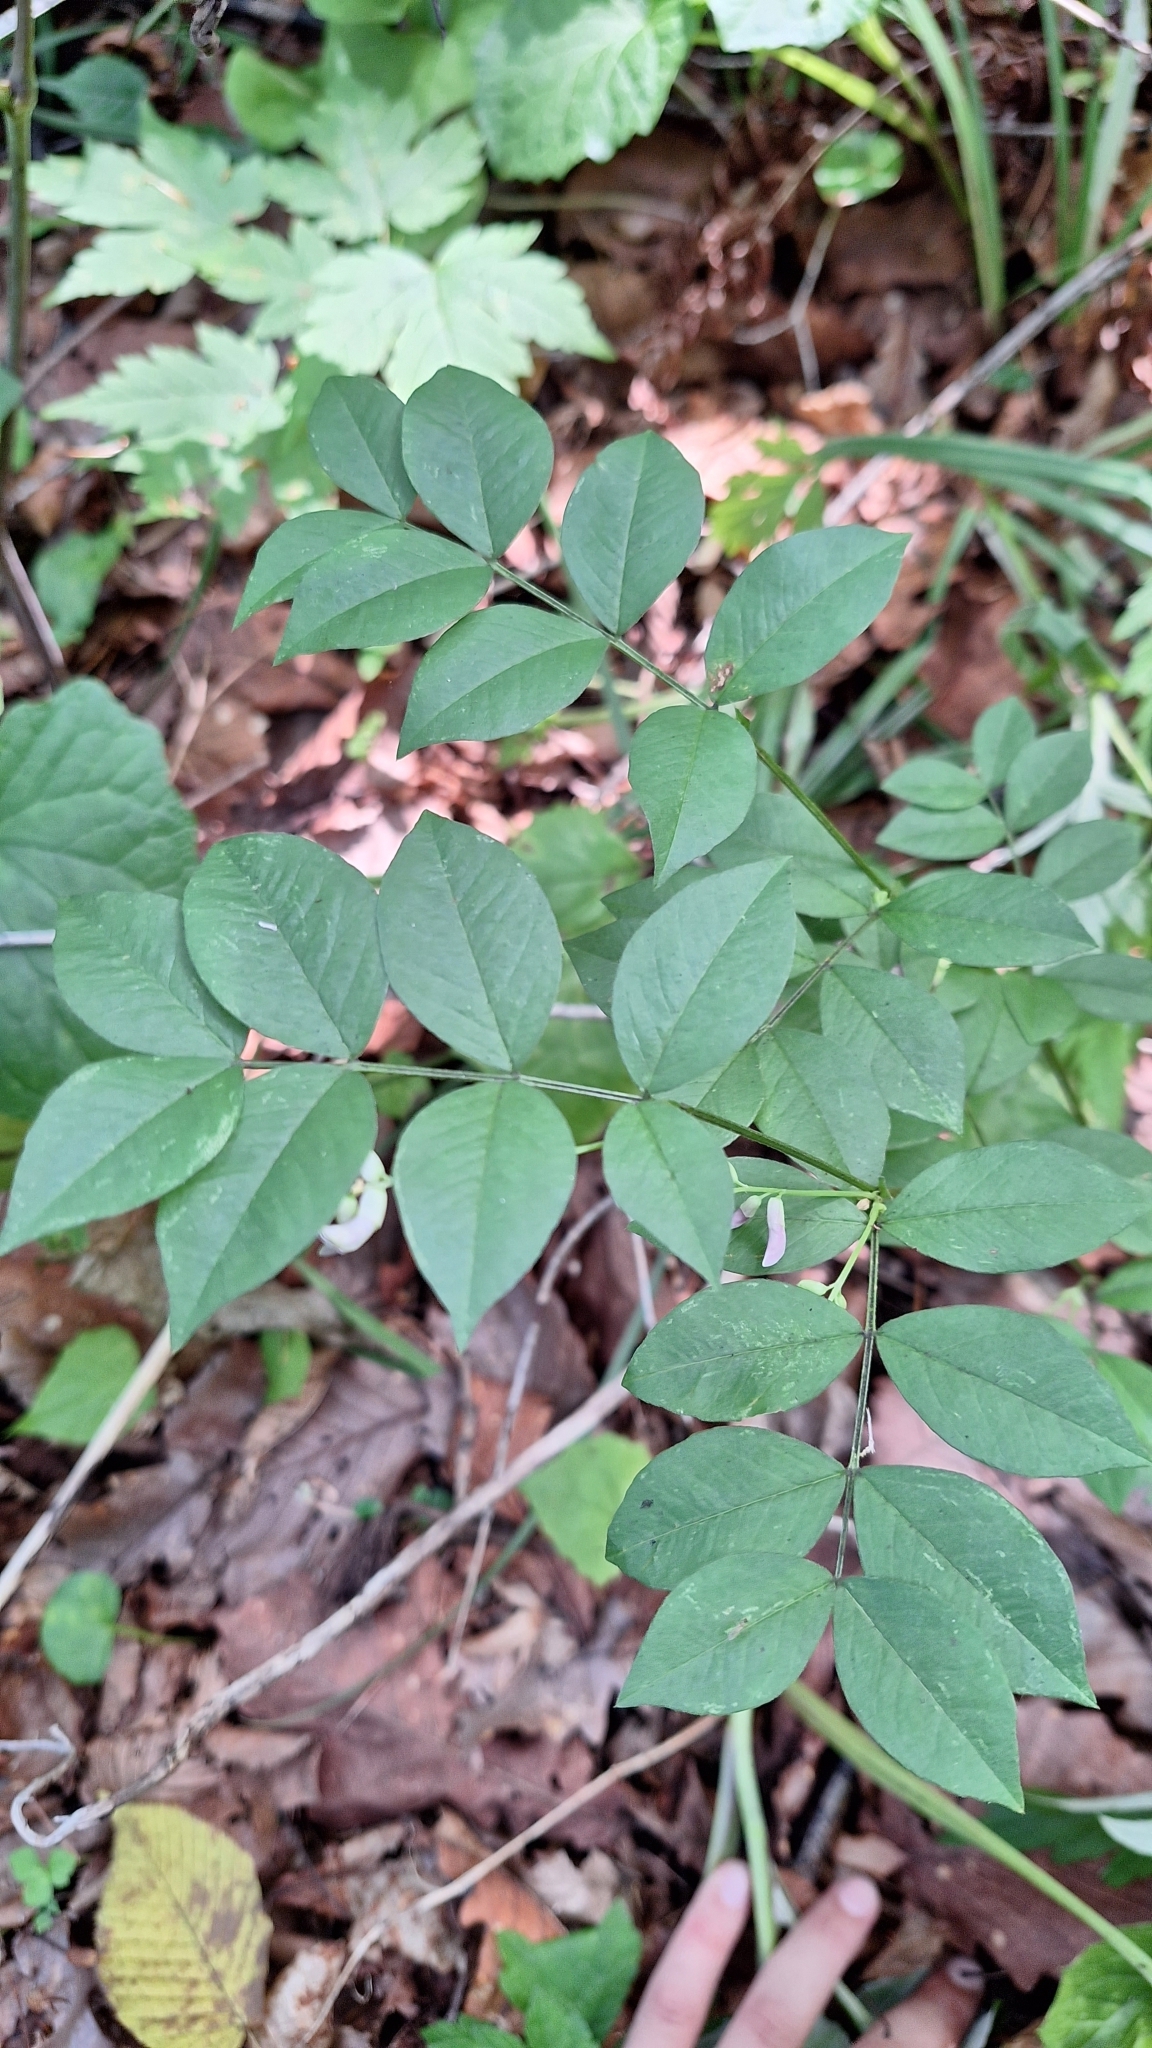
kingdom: Plantae
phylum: Tracheophyta
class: Magnoliopsida
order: Fabales
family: Fabaceae
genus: Vicia
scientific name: Vicia ramuliflora
